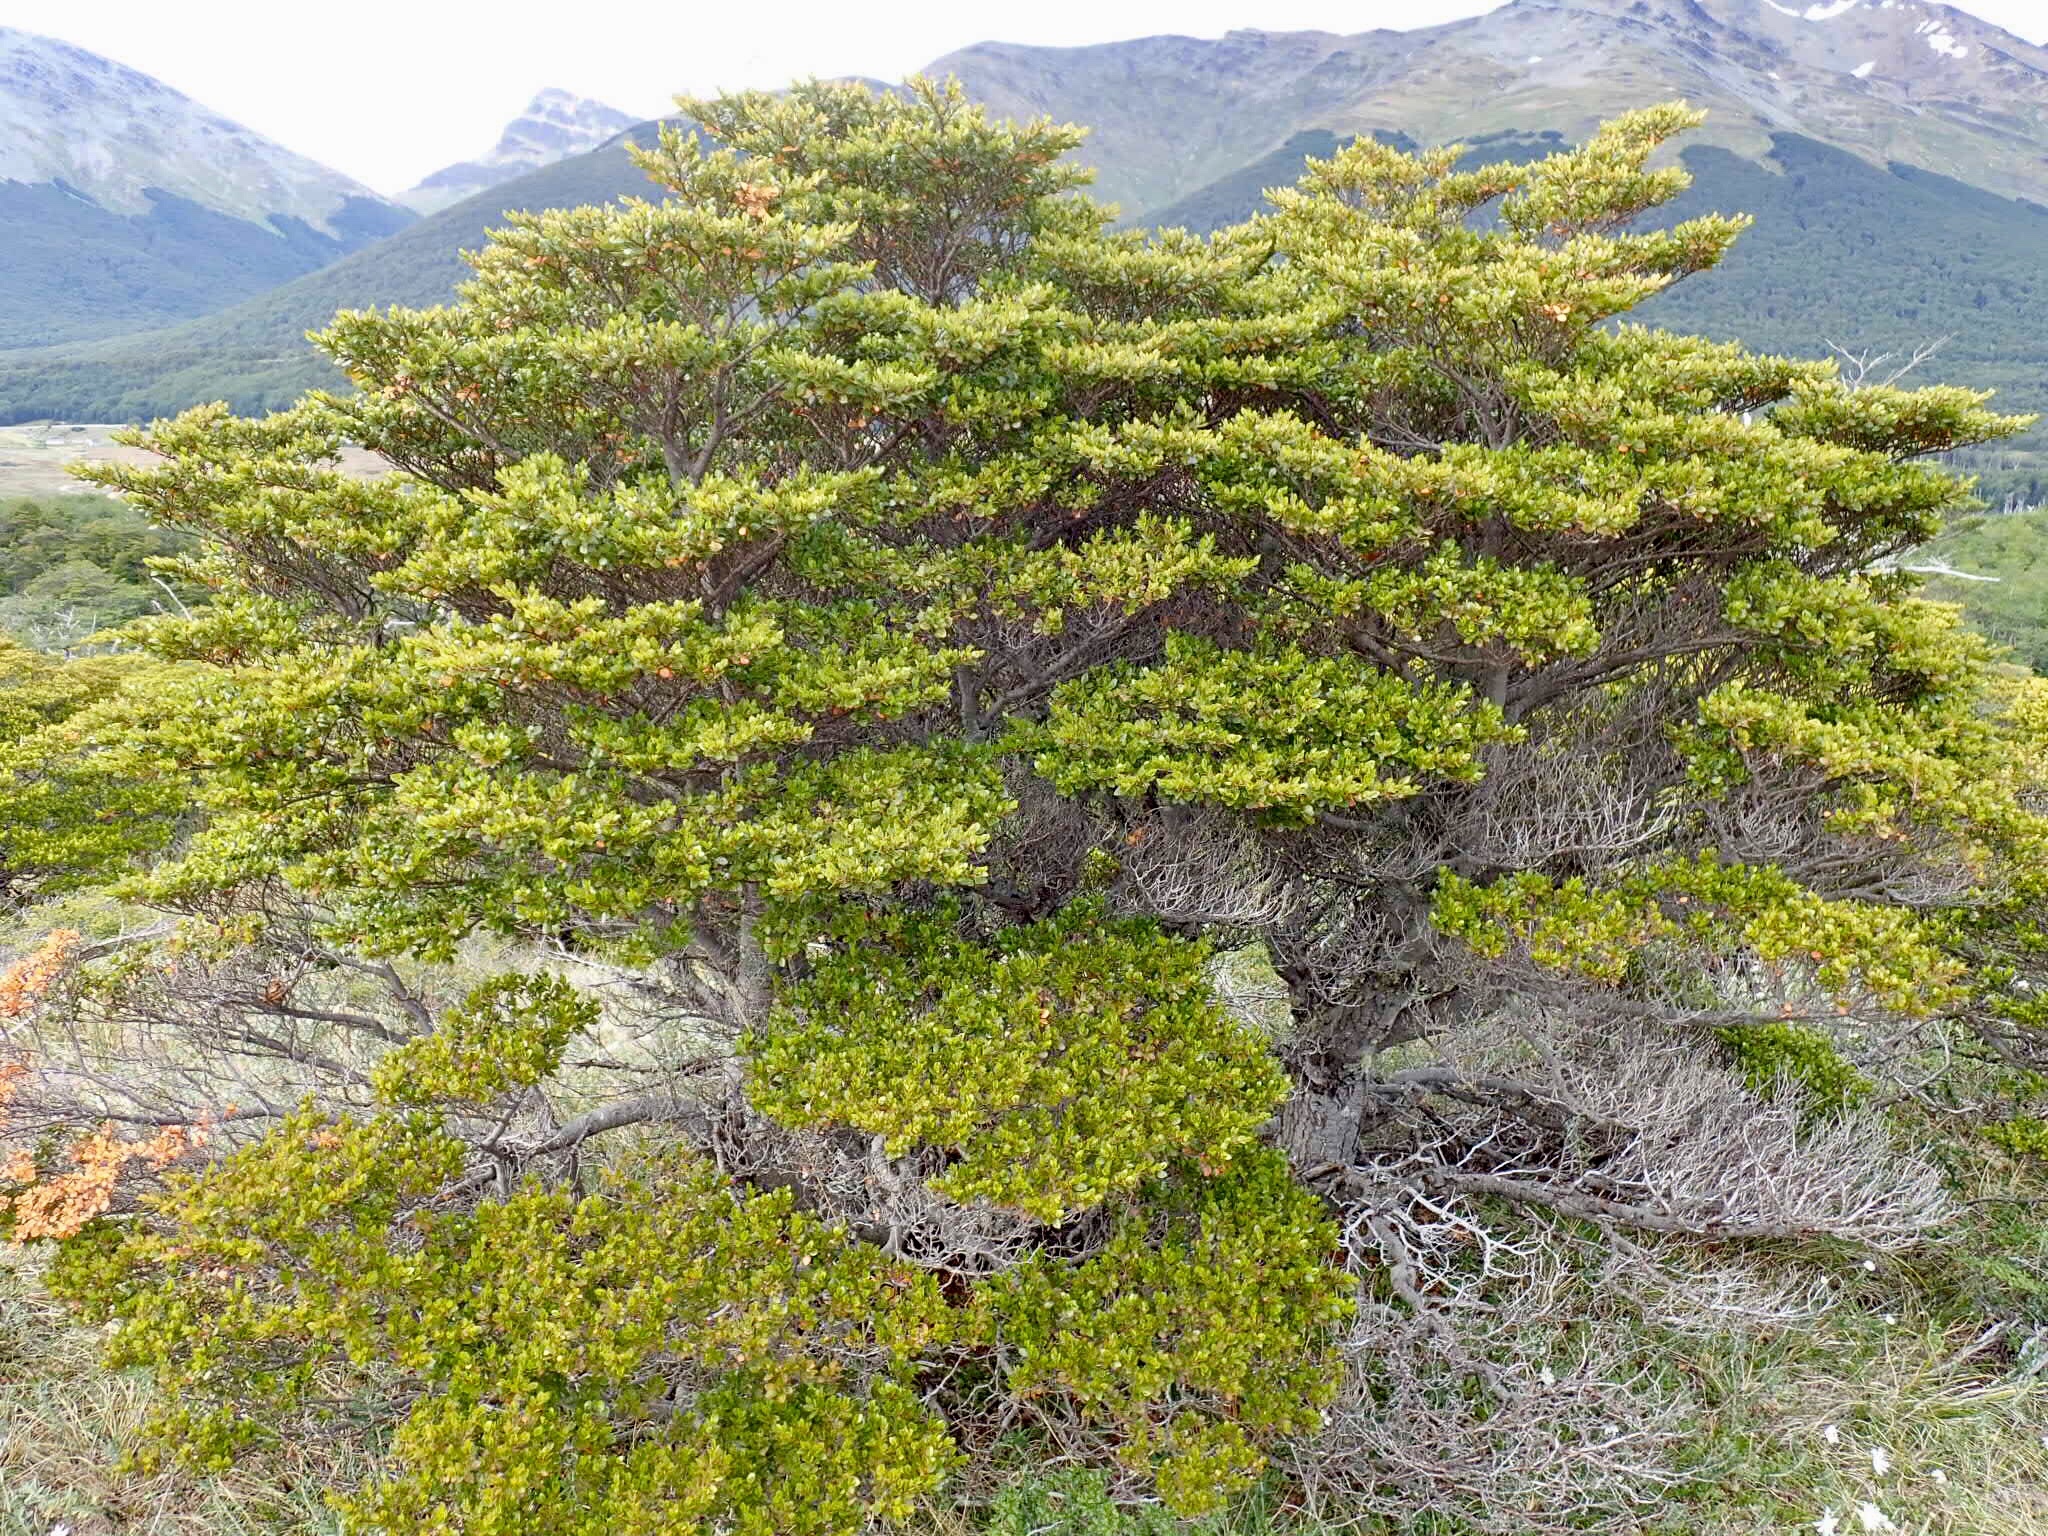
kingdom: Plantae
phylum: Tracheophyta
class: Magnoliopsida
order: Fagales
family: Nothofagaceae
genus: Nothofagus
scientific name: Nothofagus betuloides
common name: Magellan's beech
